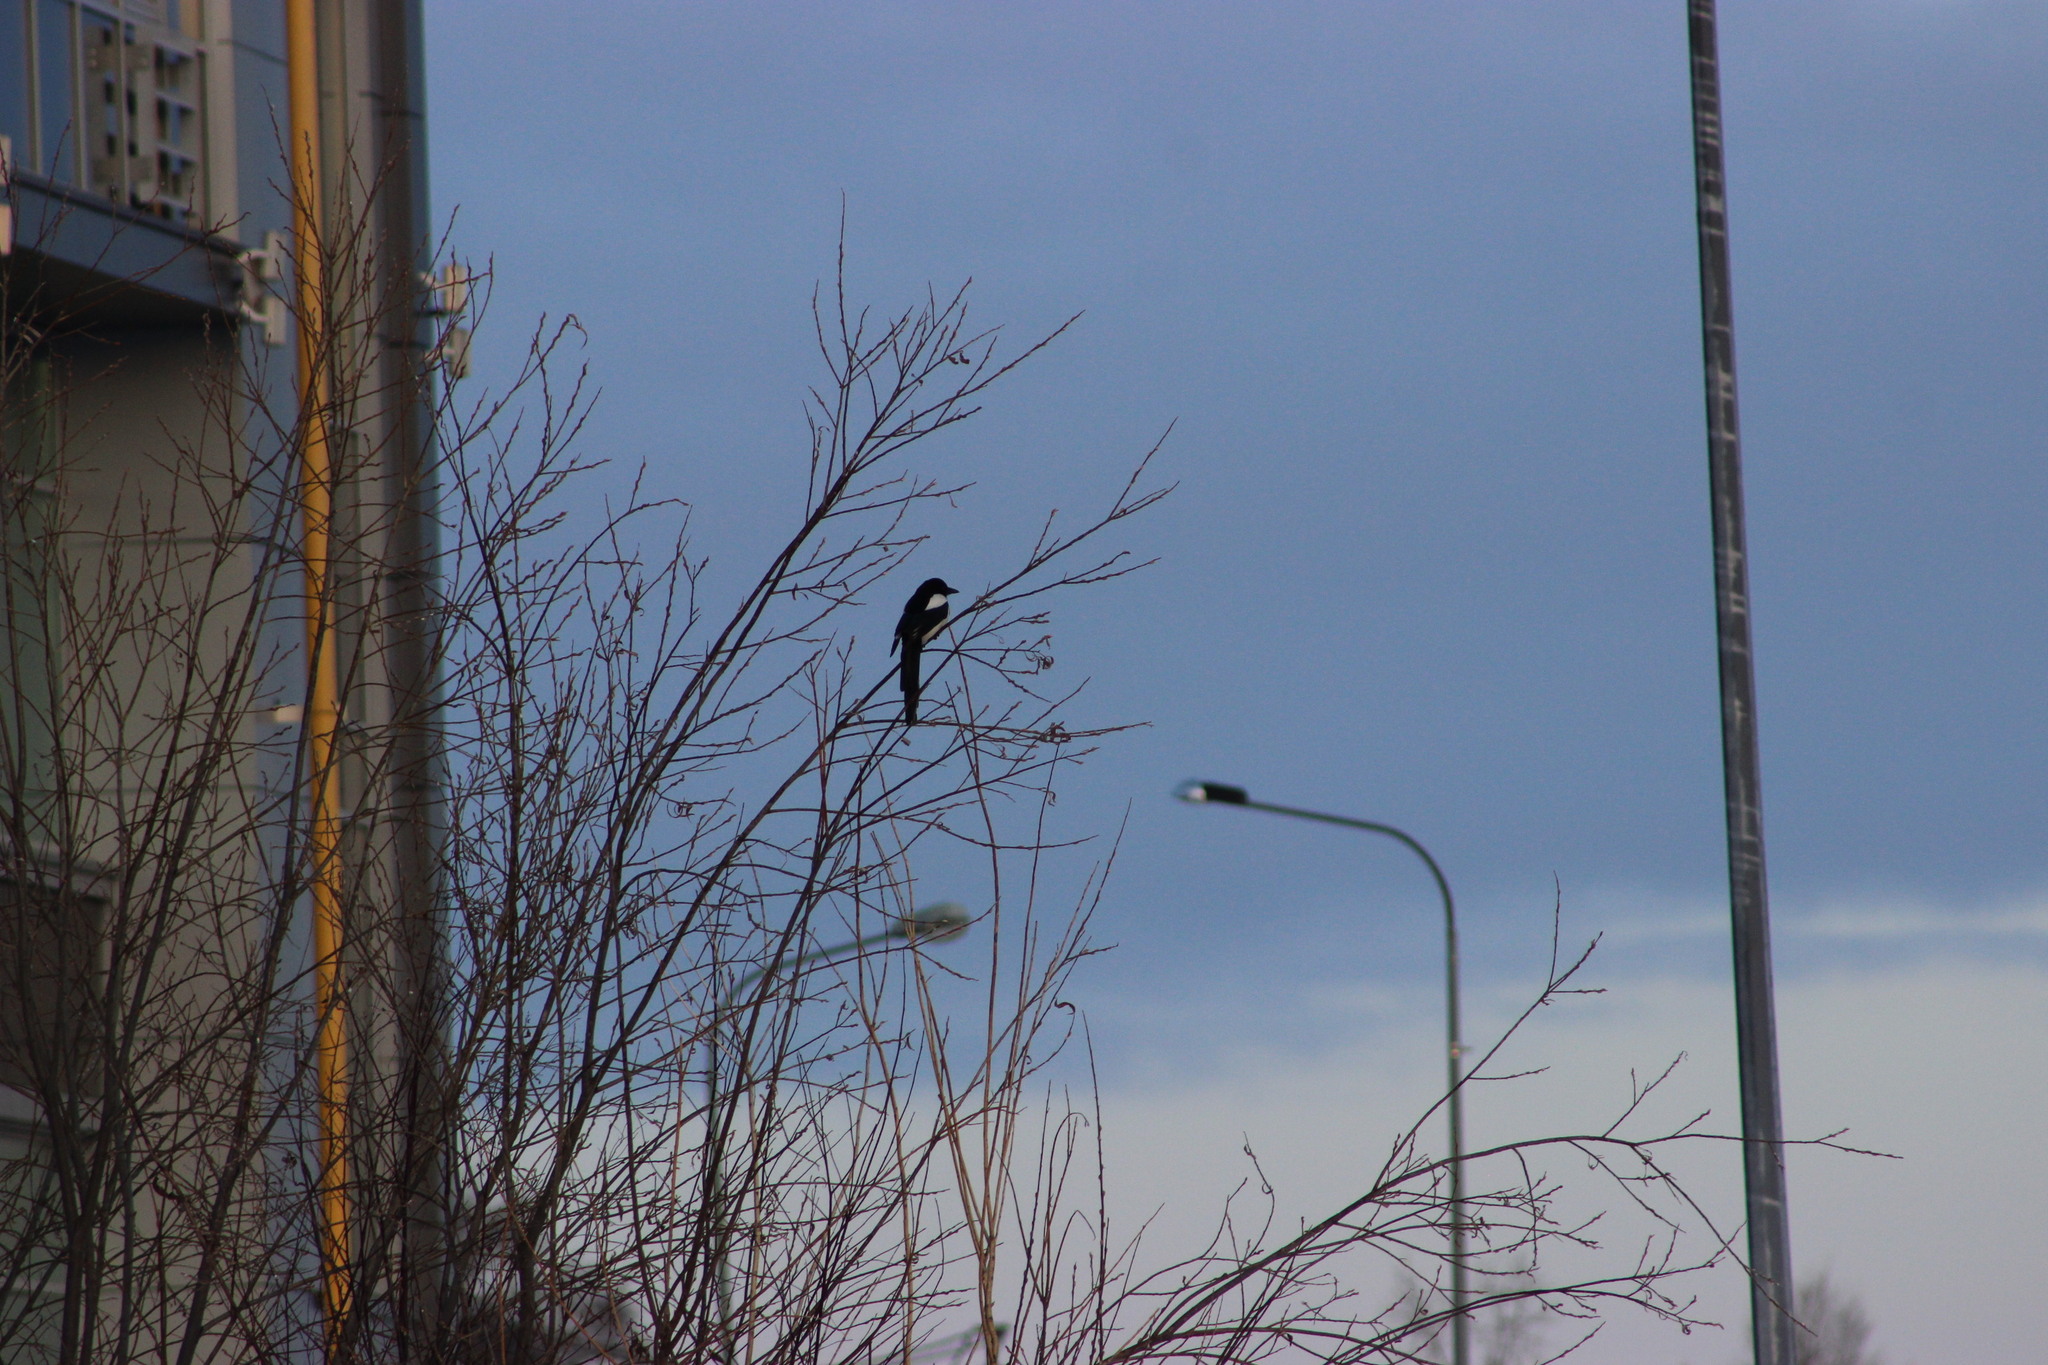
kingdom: Animalia
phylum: Chordata
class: Aves
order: Passeriformes
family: Corvidae
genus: Pica
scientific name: Pica pica
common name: Eurasian magpie
